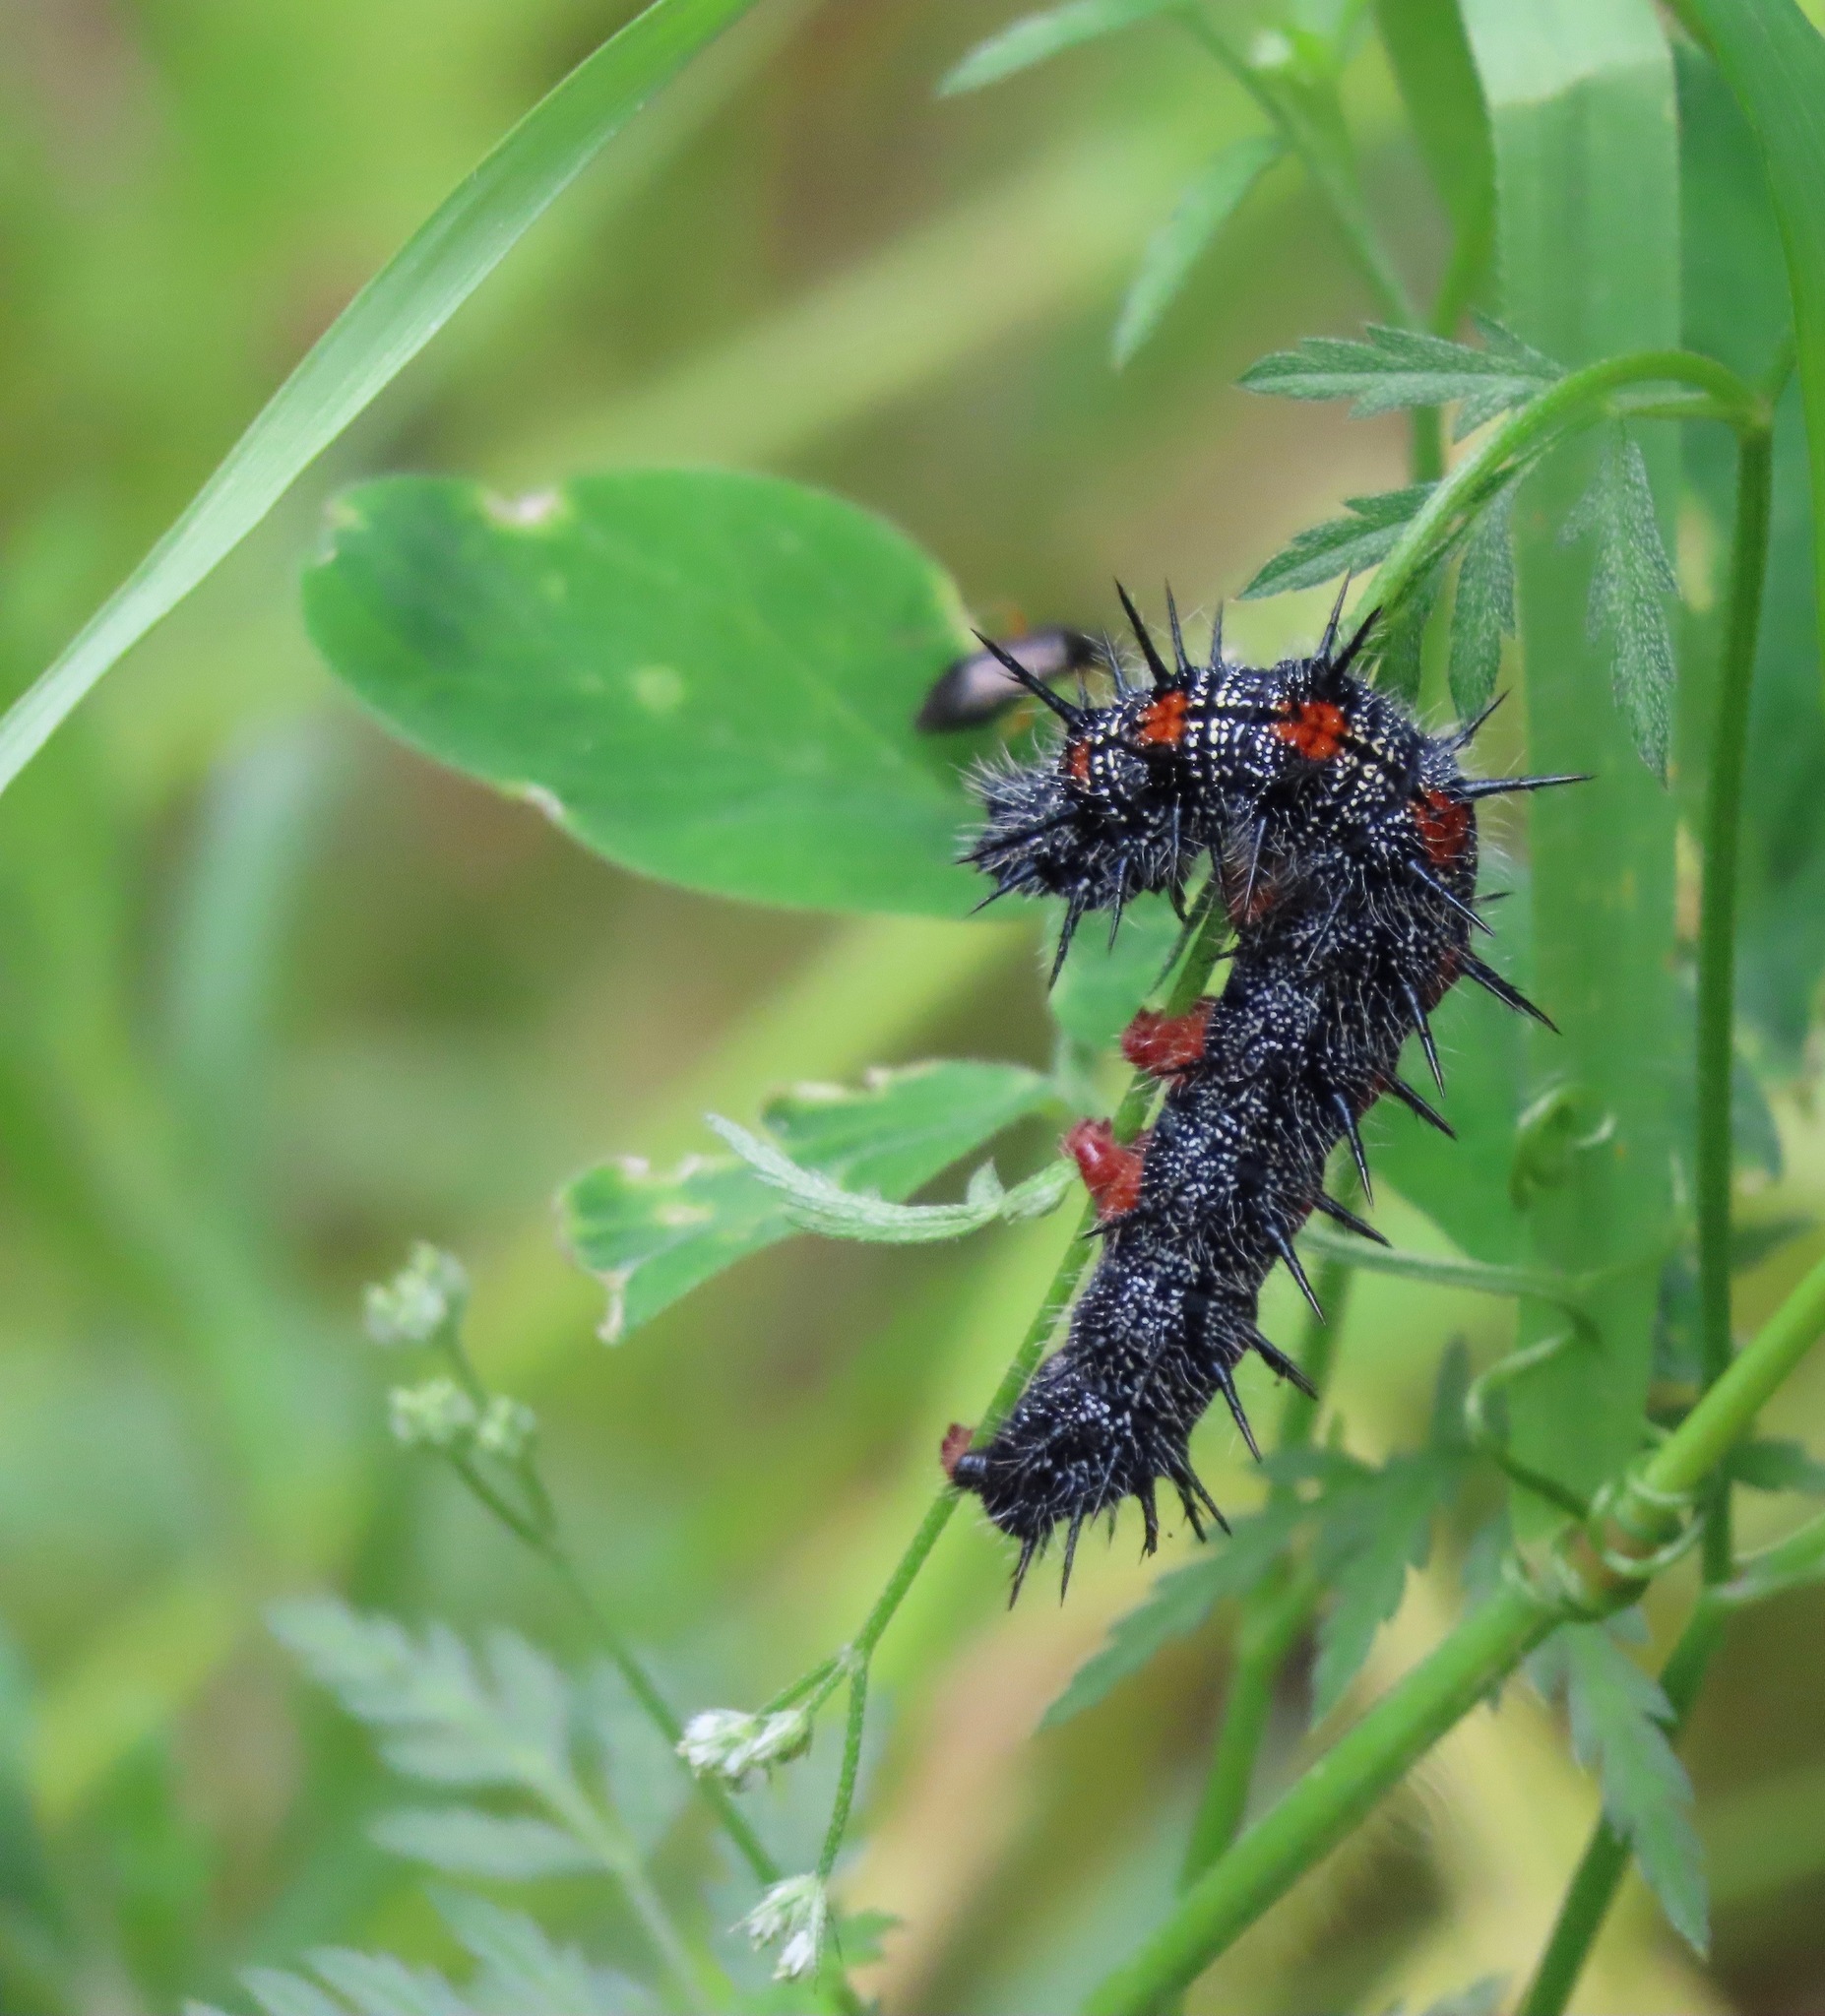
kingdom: Animalia
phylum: Arthropoda
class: Insecta
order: Lepidoptera
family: Nymphalidae
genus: Nymphalis
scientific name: Nymphalis antiopa
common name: Camberwell beauty
